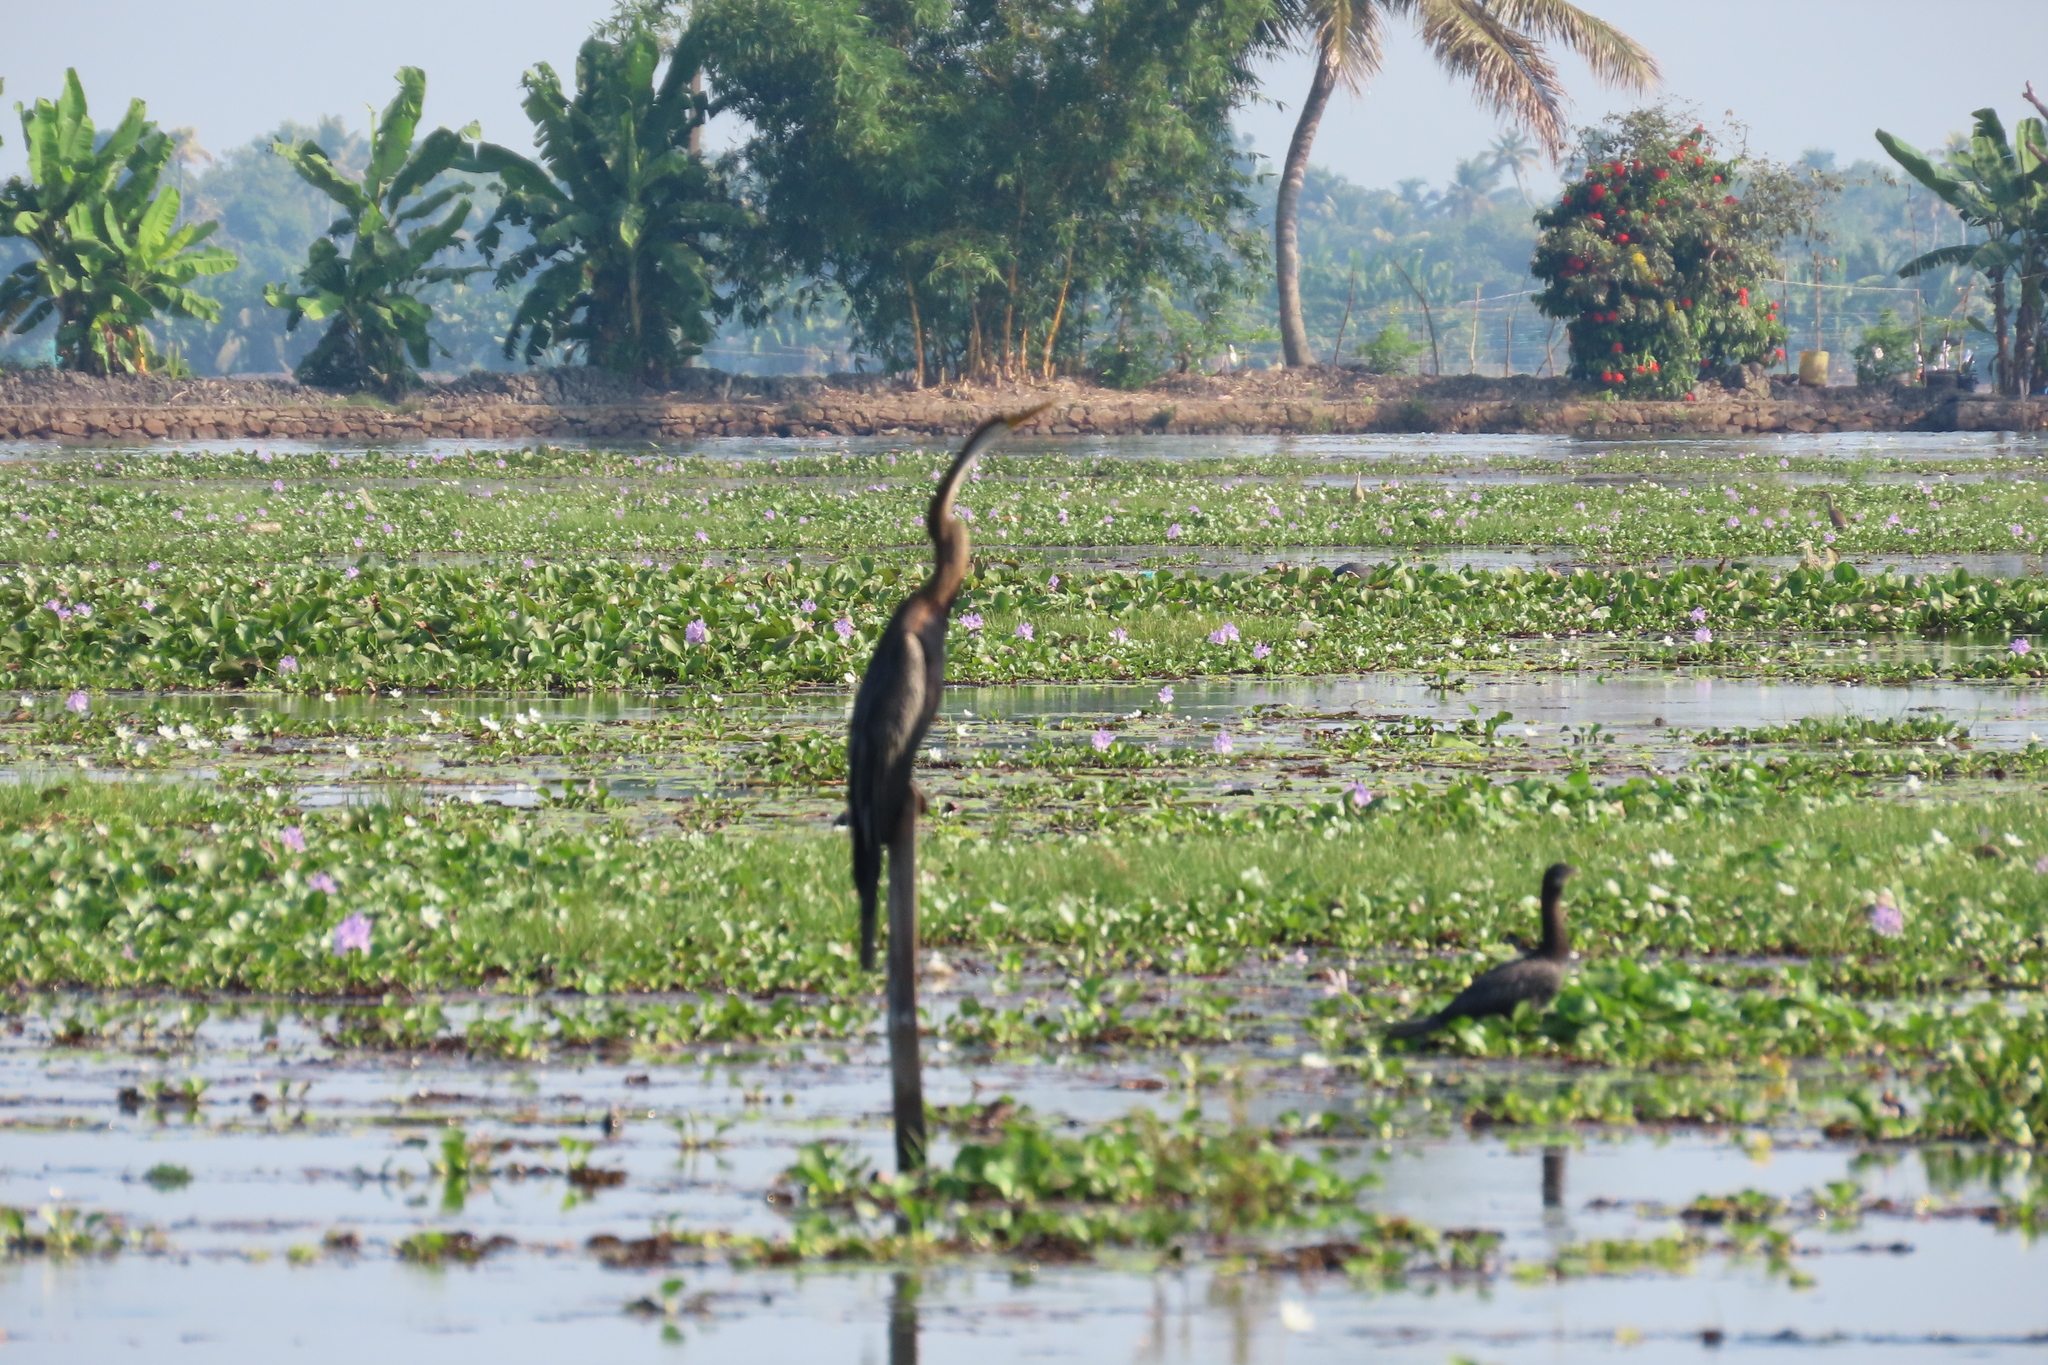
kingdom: Animalia
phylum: Chordata
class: Aves
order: Suliformes
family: Anhingidae
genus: Anhinga
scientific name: Anhinga melanogaster
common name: Oriental darter
